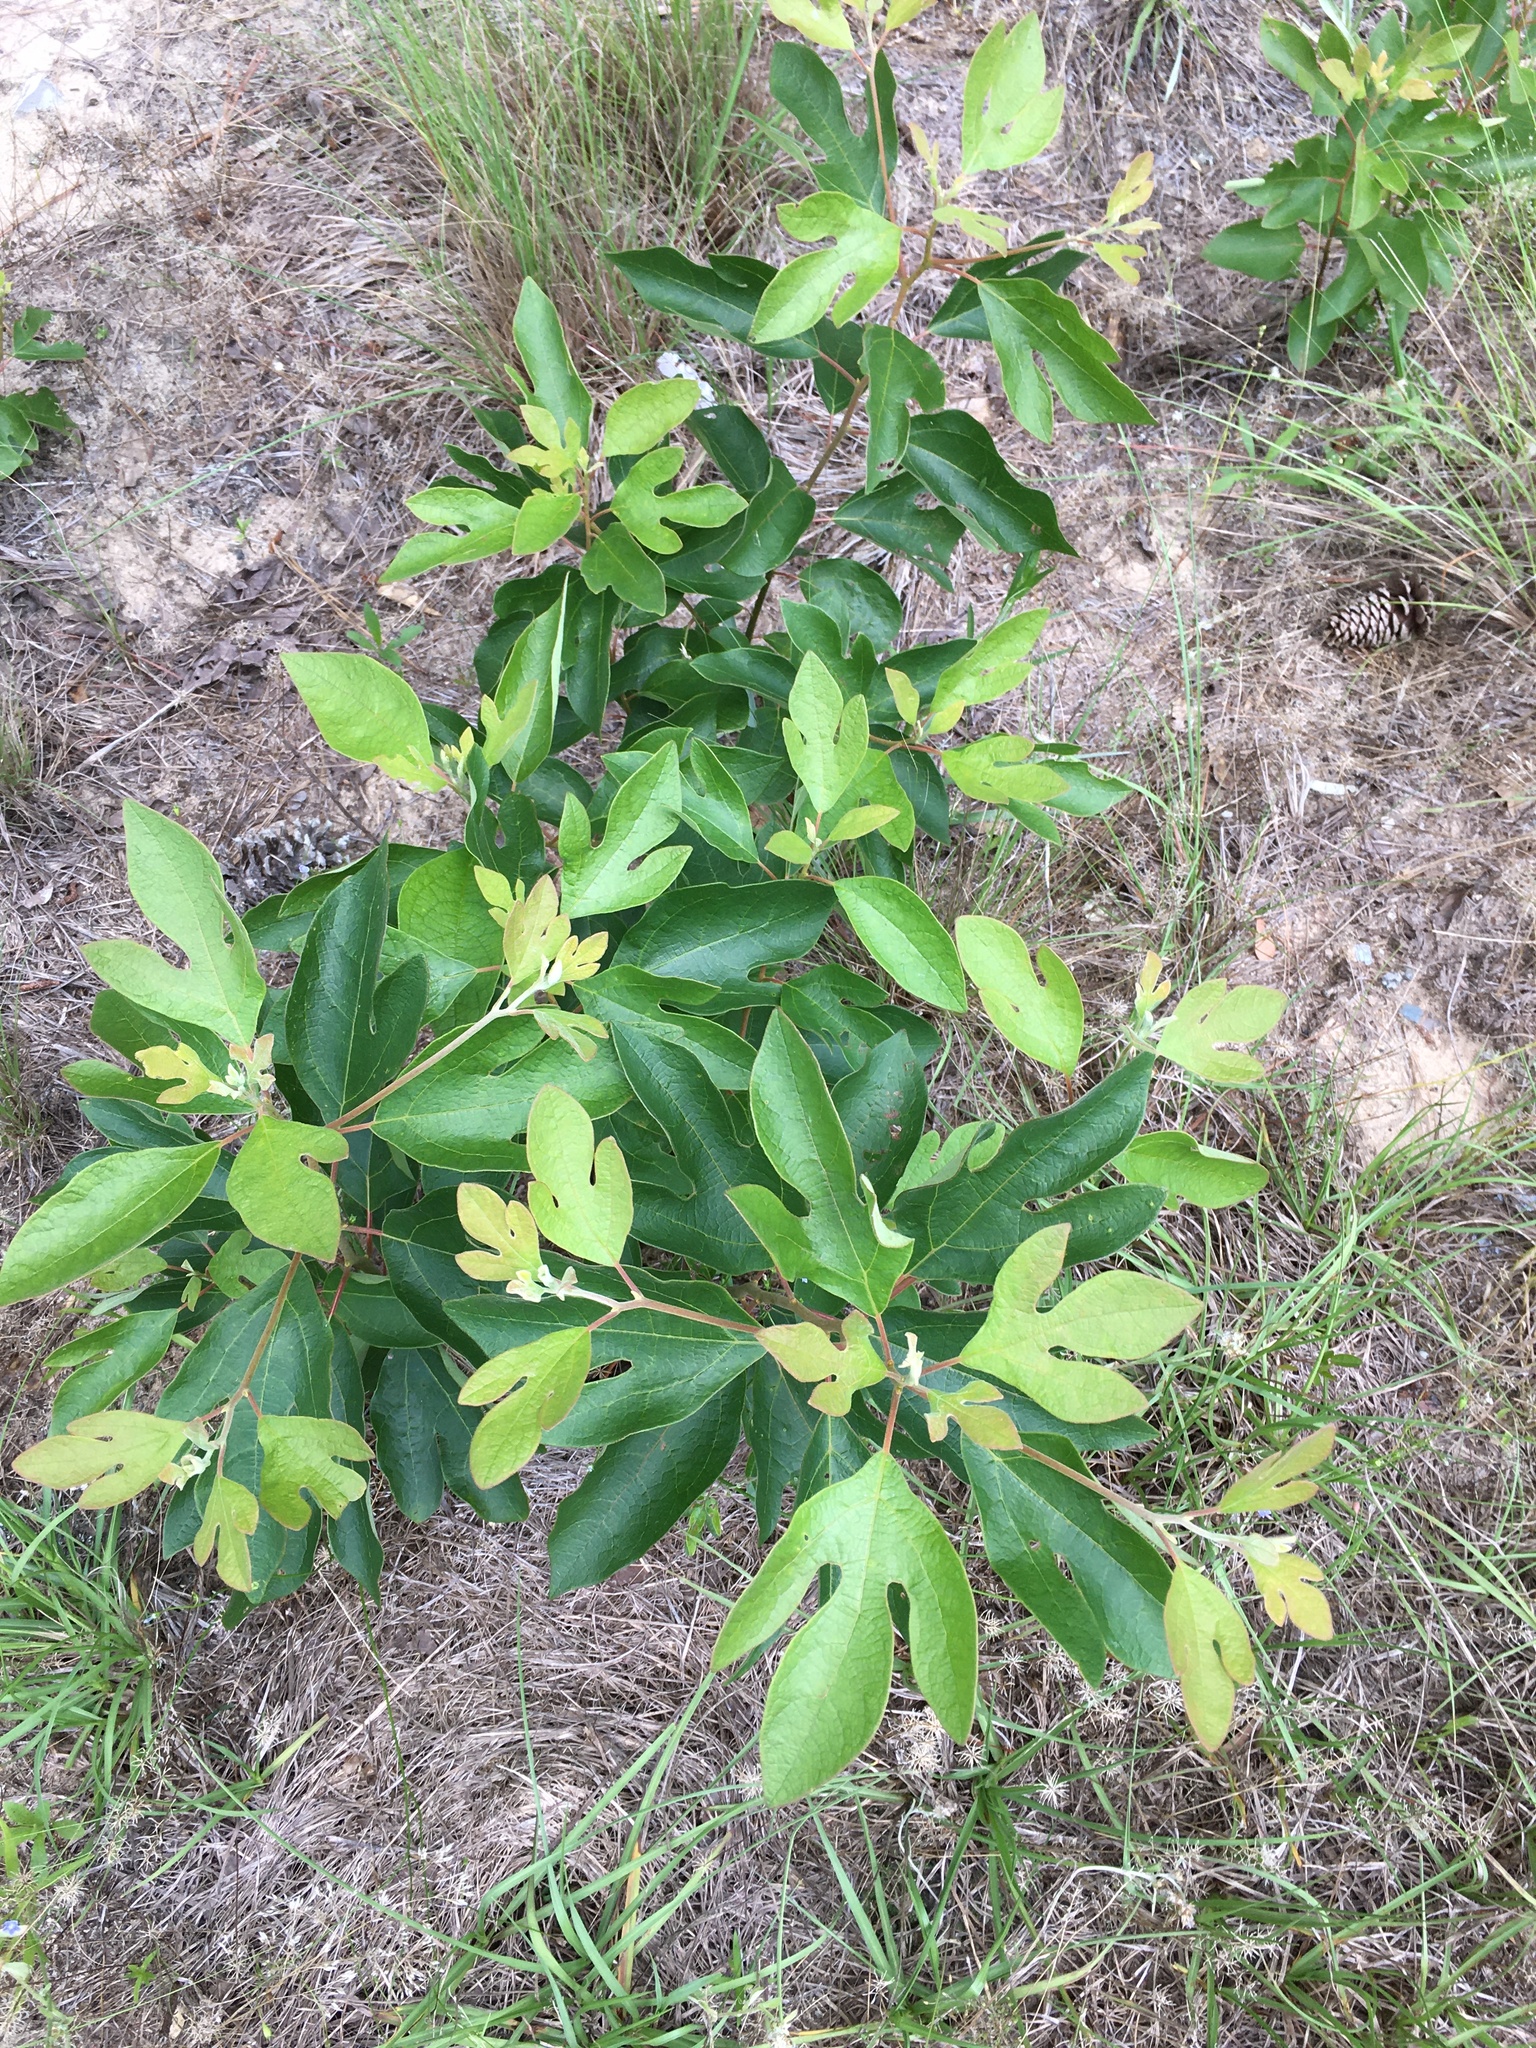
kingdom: Plantae
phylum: Tracheophyta
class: Magnoliopsida
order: Laurales
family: Lauraceae
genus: Sassafras
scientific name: Sassafras albidum
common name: Sassafras
